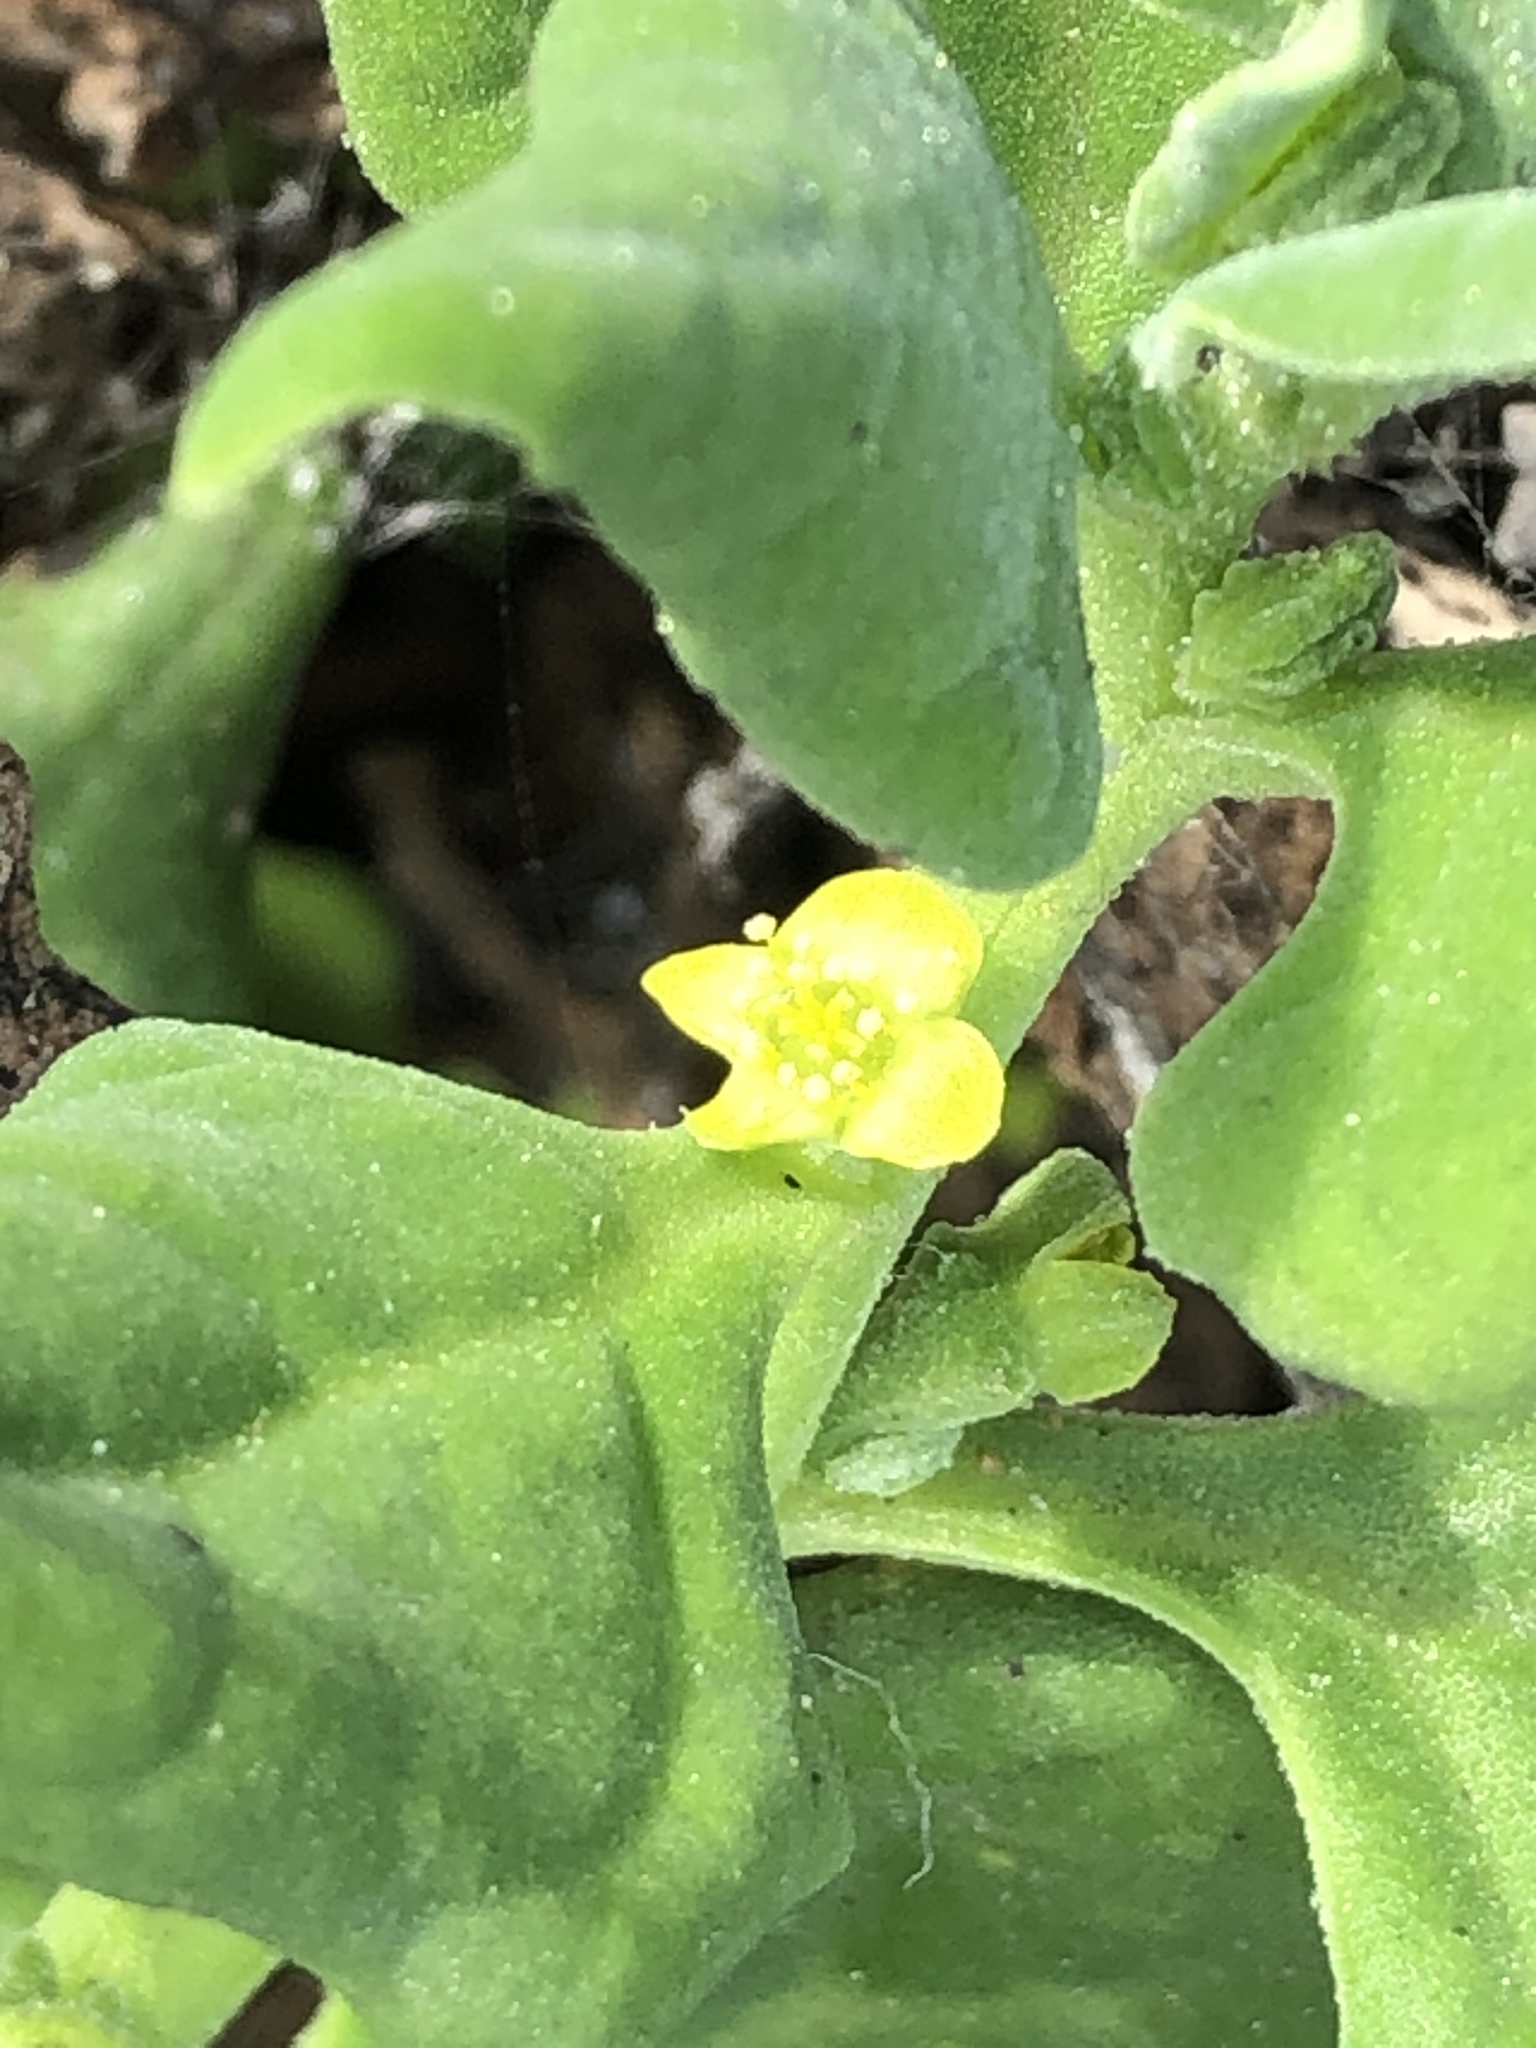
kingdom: Plantae
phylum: Tracheophyta
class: Magnoliopsida
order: Caryophyllales
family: Aizoaceae
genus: Tetragonia
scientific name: Tetragonia tetragonoides
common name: New zealand-spinach
